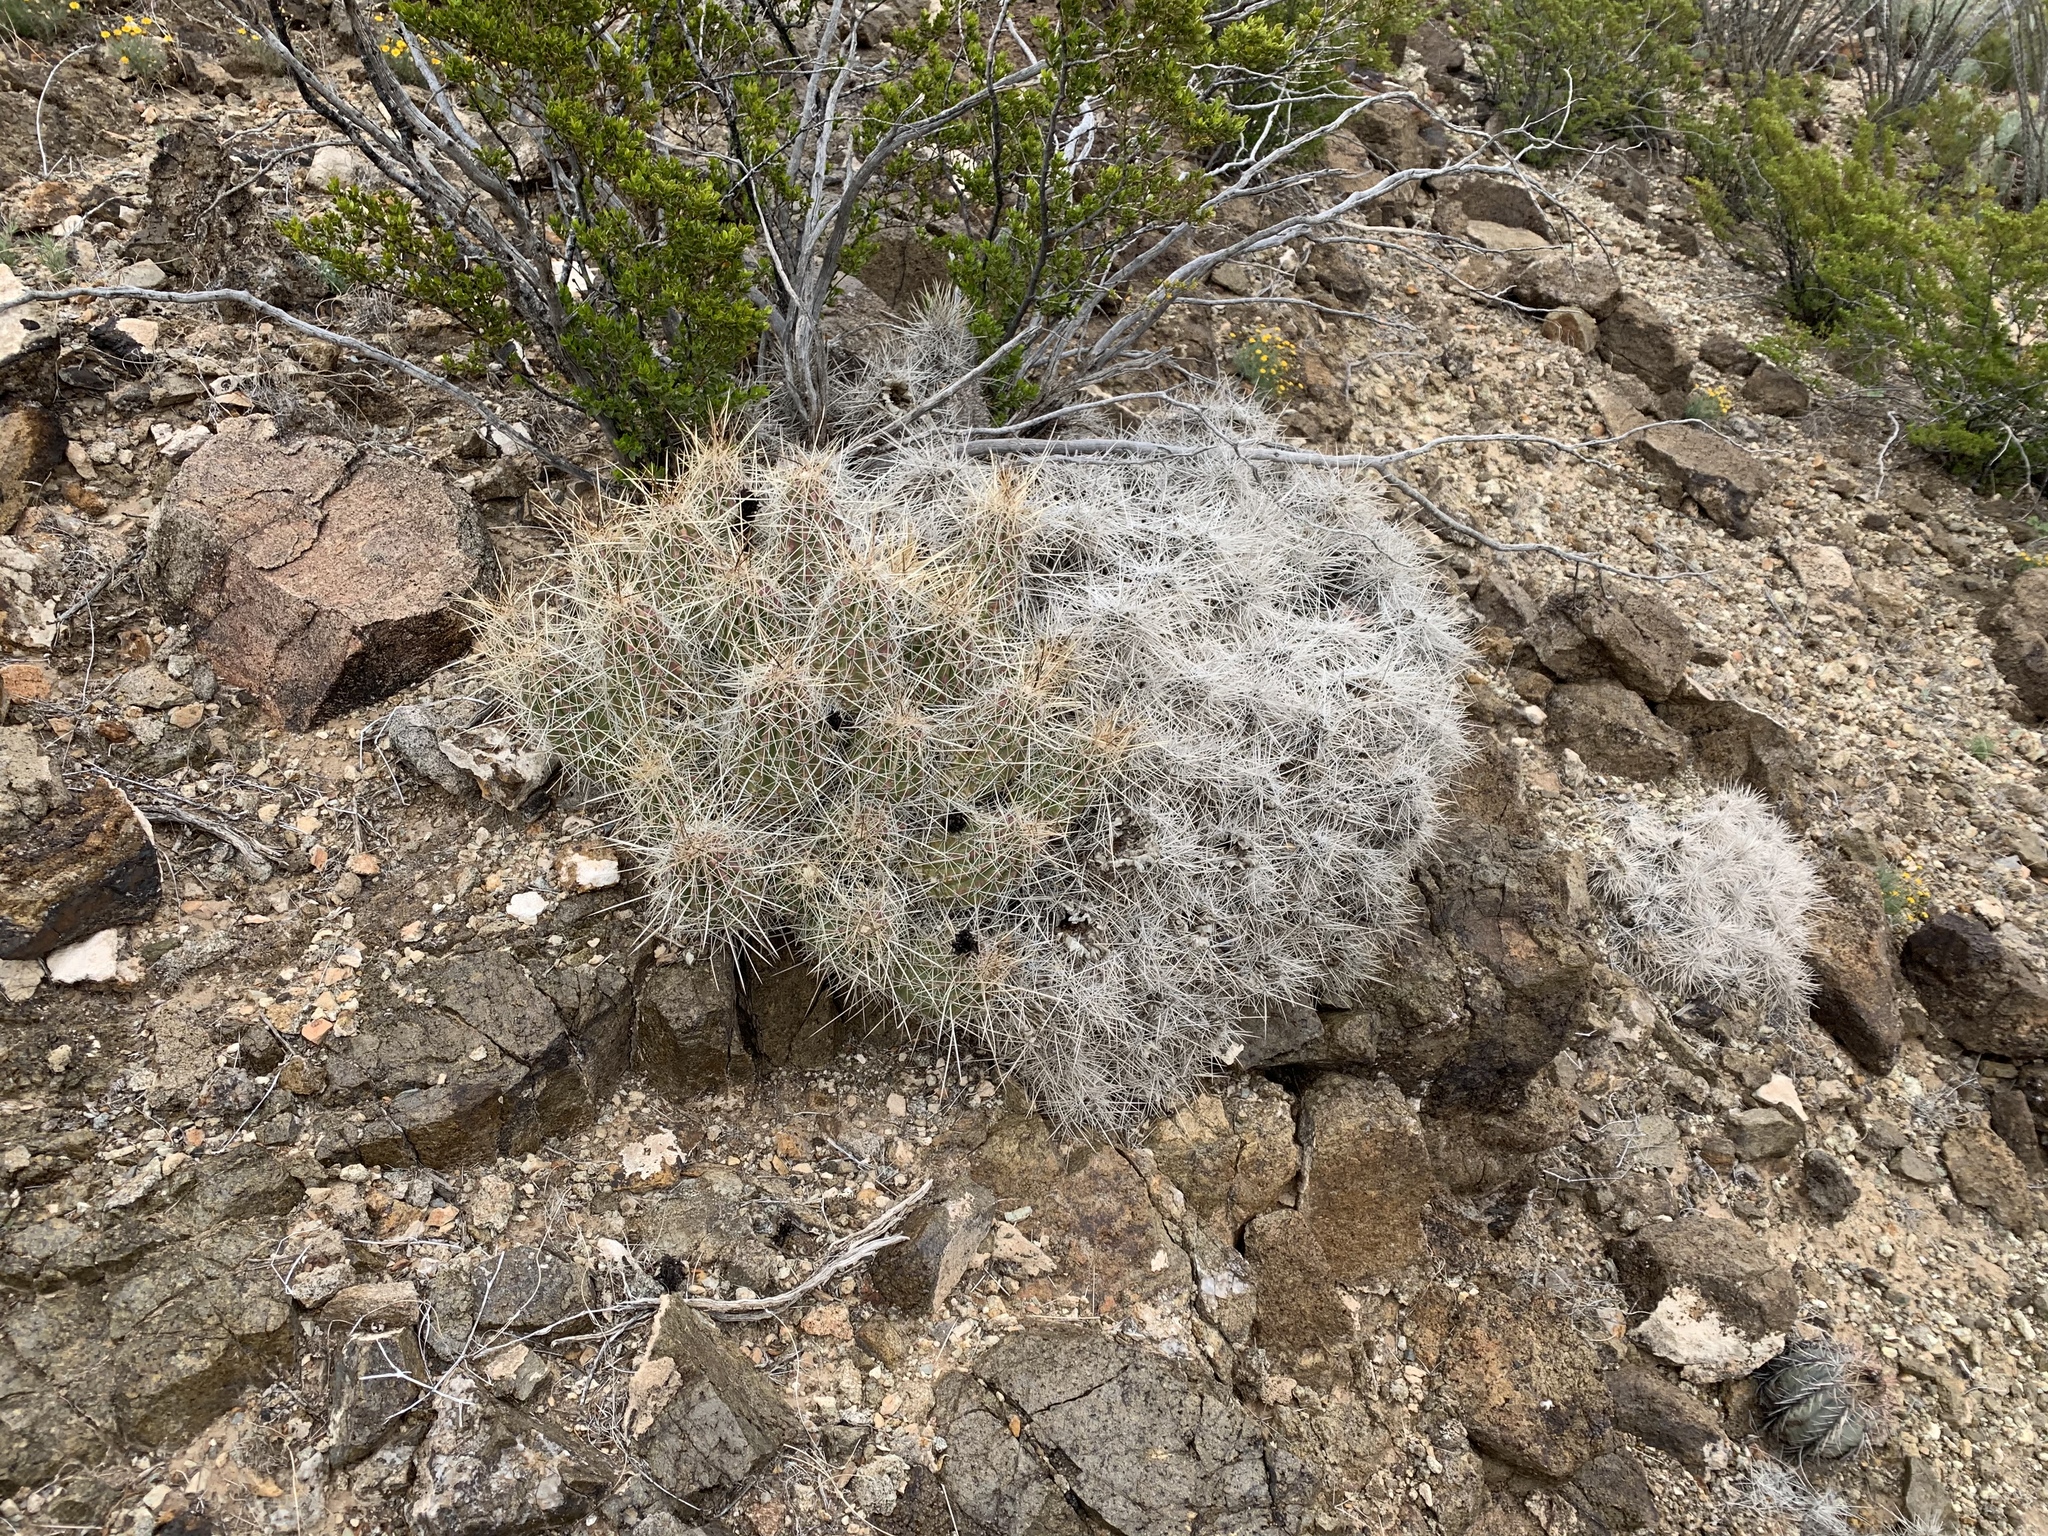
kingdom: Plantae
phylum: Tracheophyta
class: Magnoliopsida
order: Caryophyllales
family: Cactaceae
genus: Echinocereus
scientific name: Echinocereus stramineus
